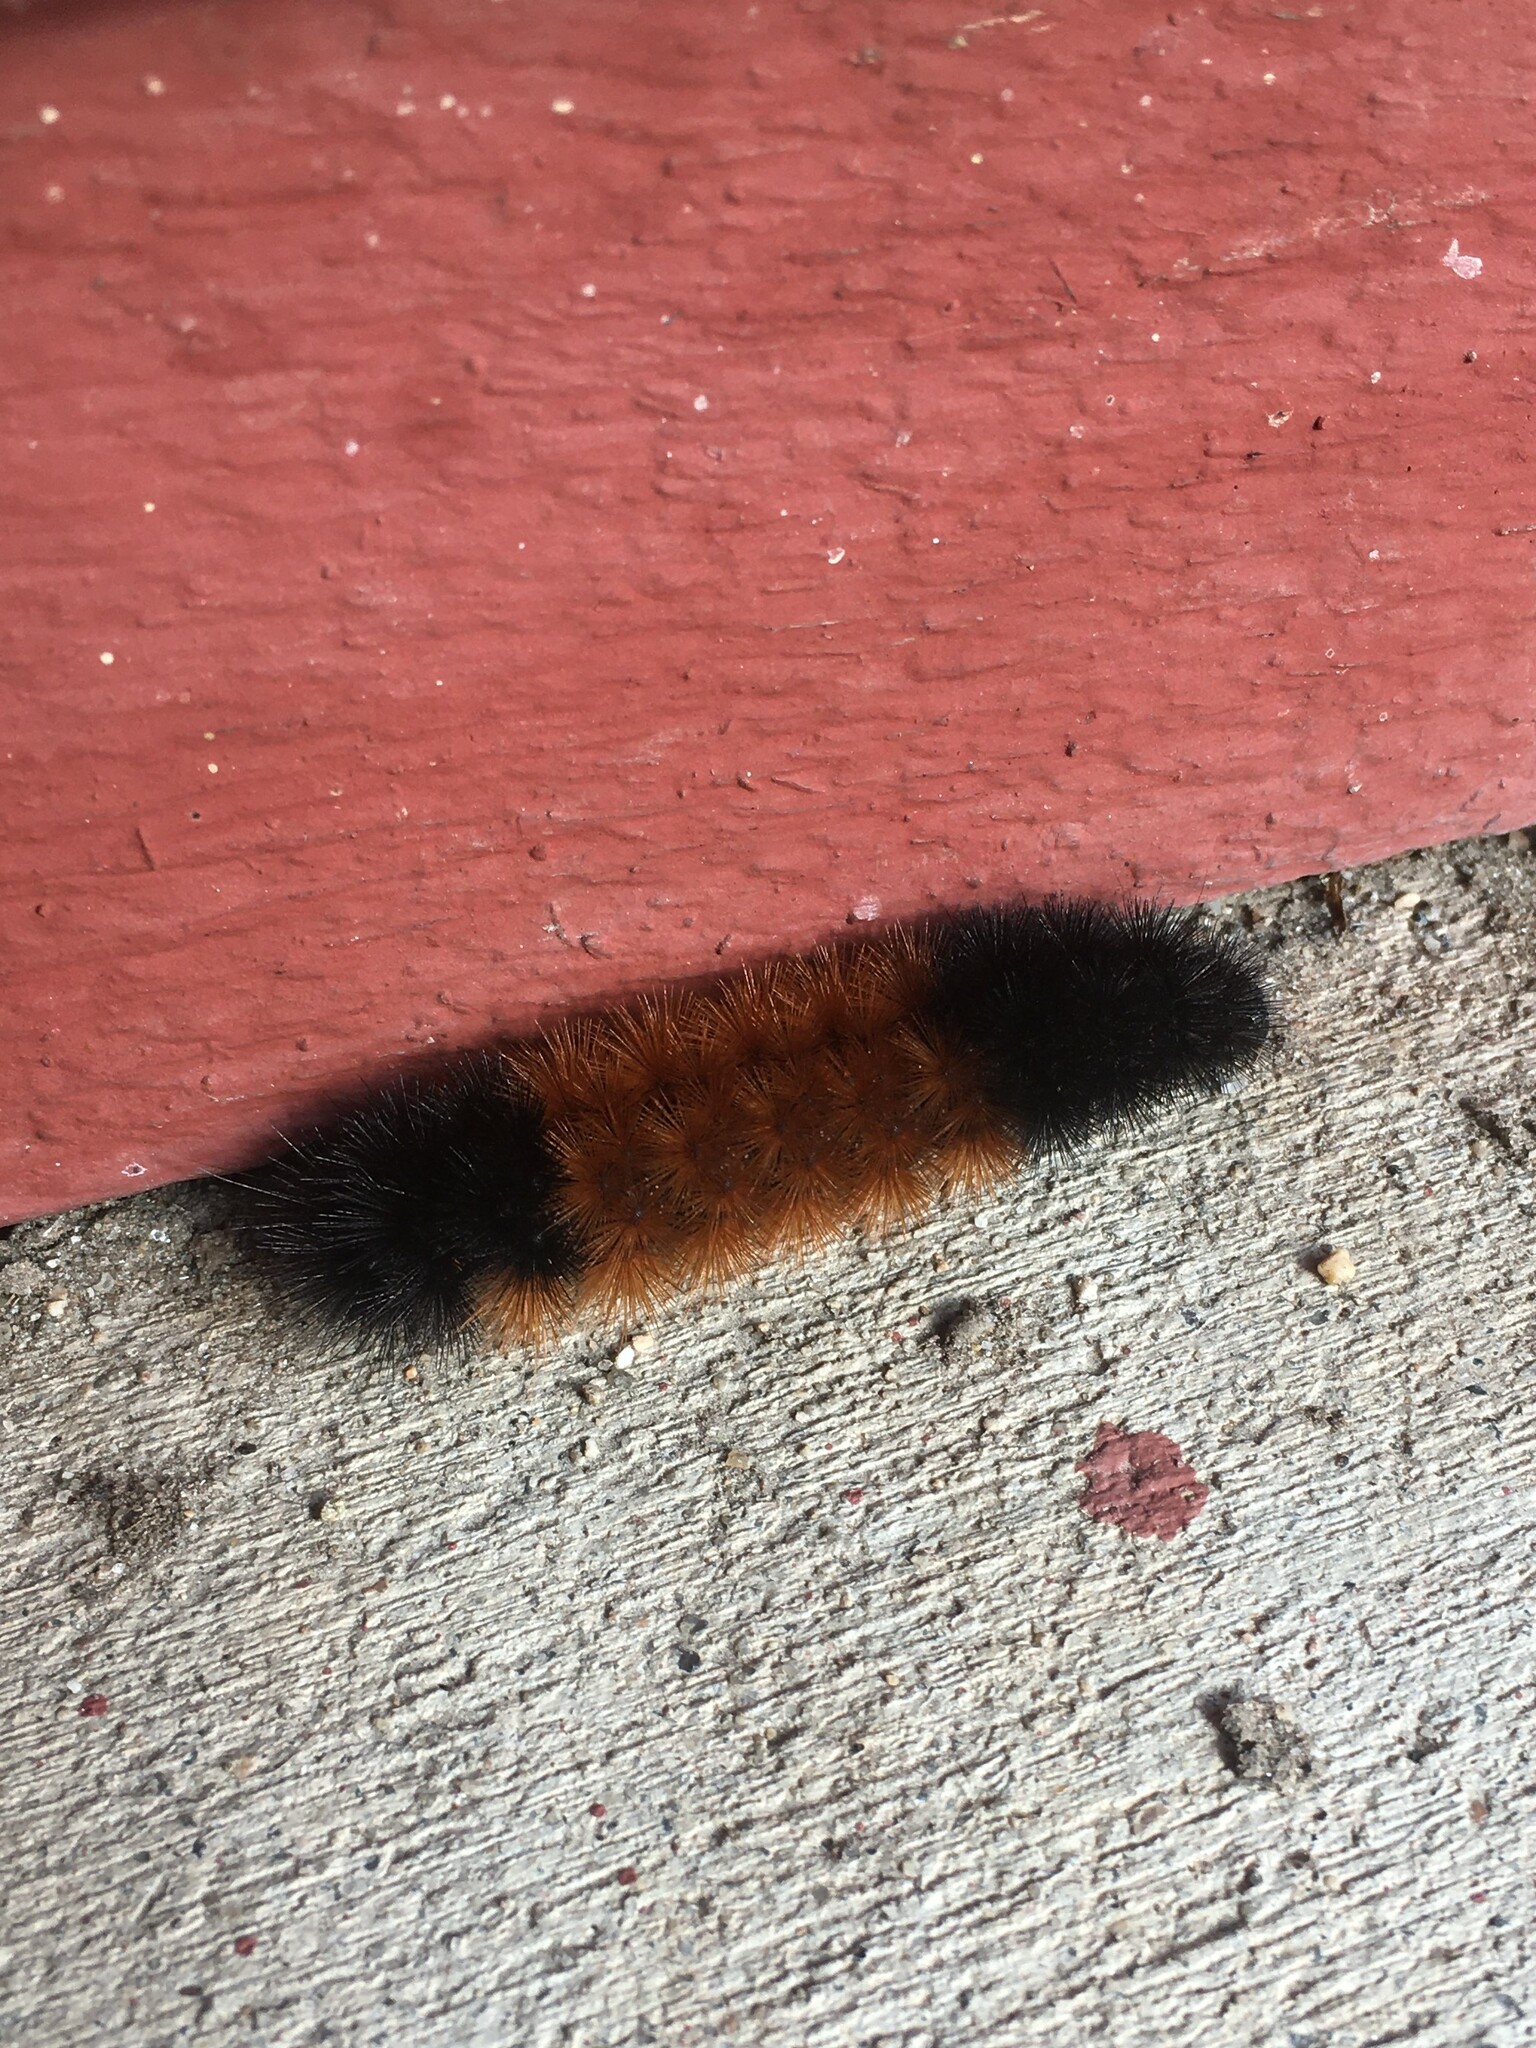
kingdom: Animalia
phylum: Arthropoda
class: Insecta
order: Lepidoptera
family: Erebidae
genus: Pyrrharctia
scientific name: Pyrrharctia isabella
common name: Isabella tiger moth
